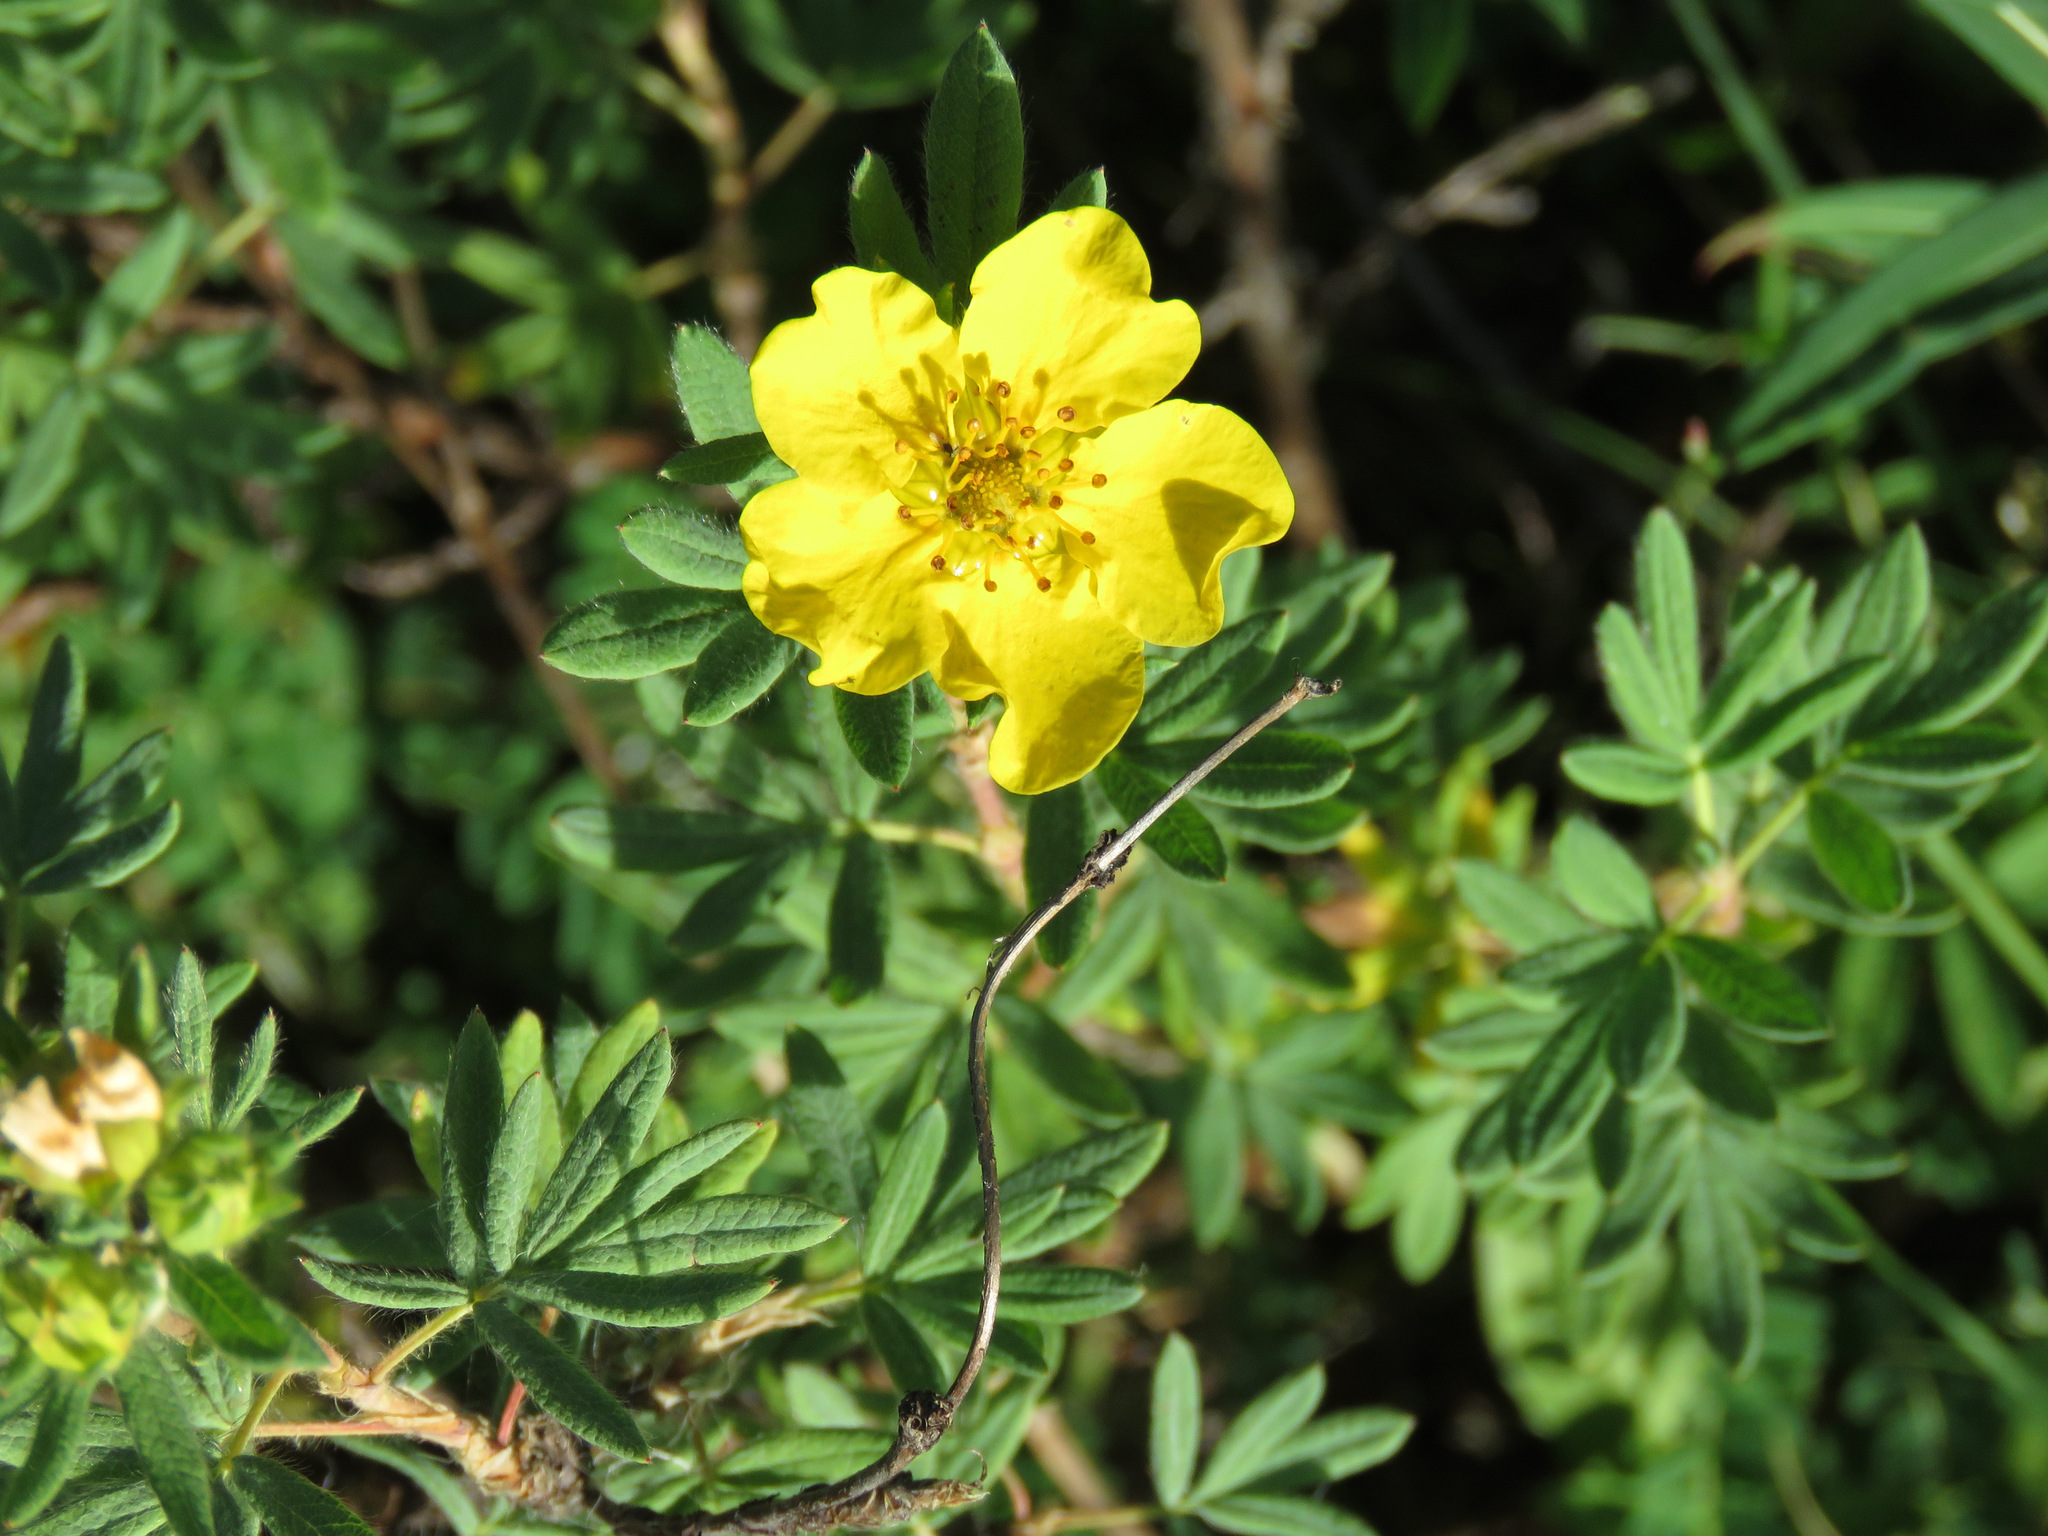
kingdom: Plantae
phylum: Tracheophyta
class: Magnoliopsida
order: Rosales
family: Rosaceae
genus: Dasiphora
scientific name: Dasiphora fruticosa
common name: Shrubby cinquefoil
